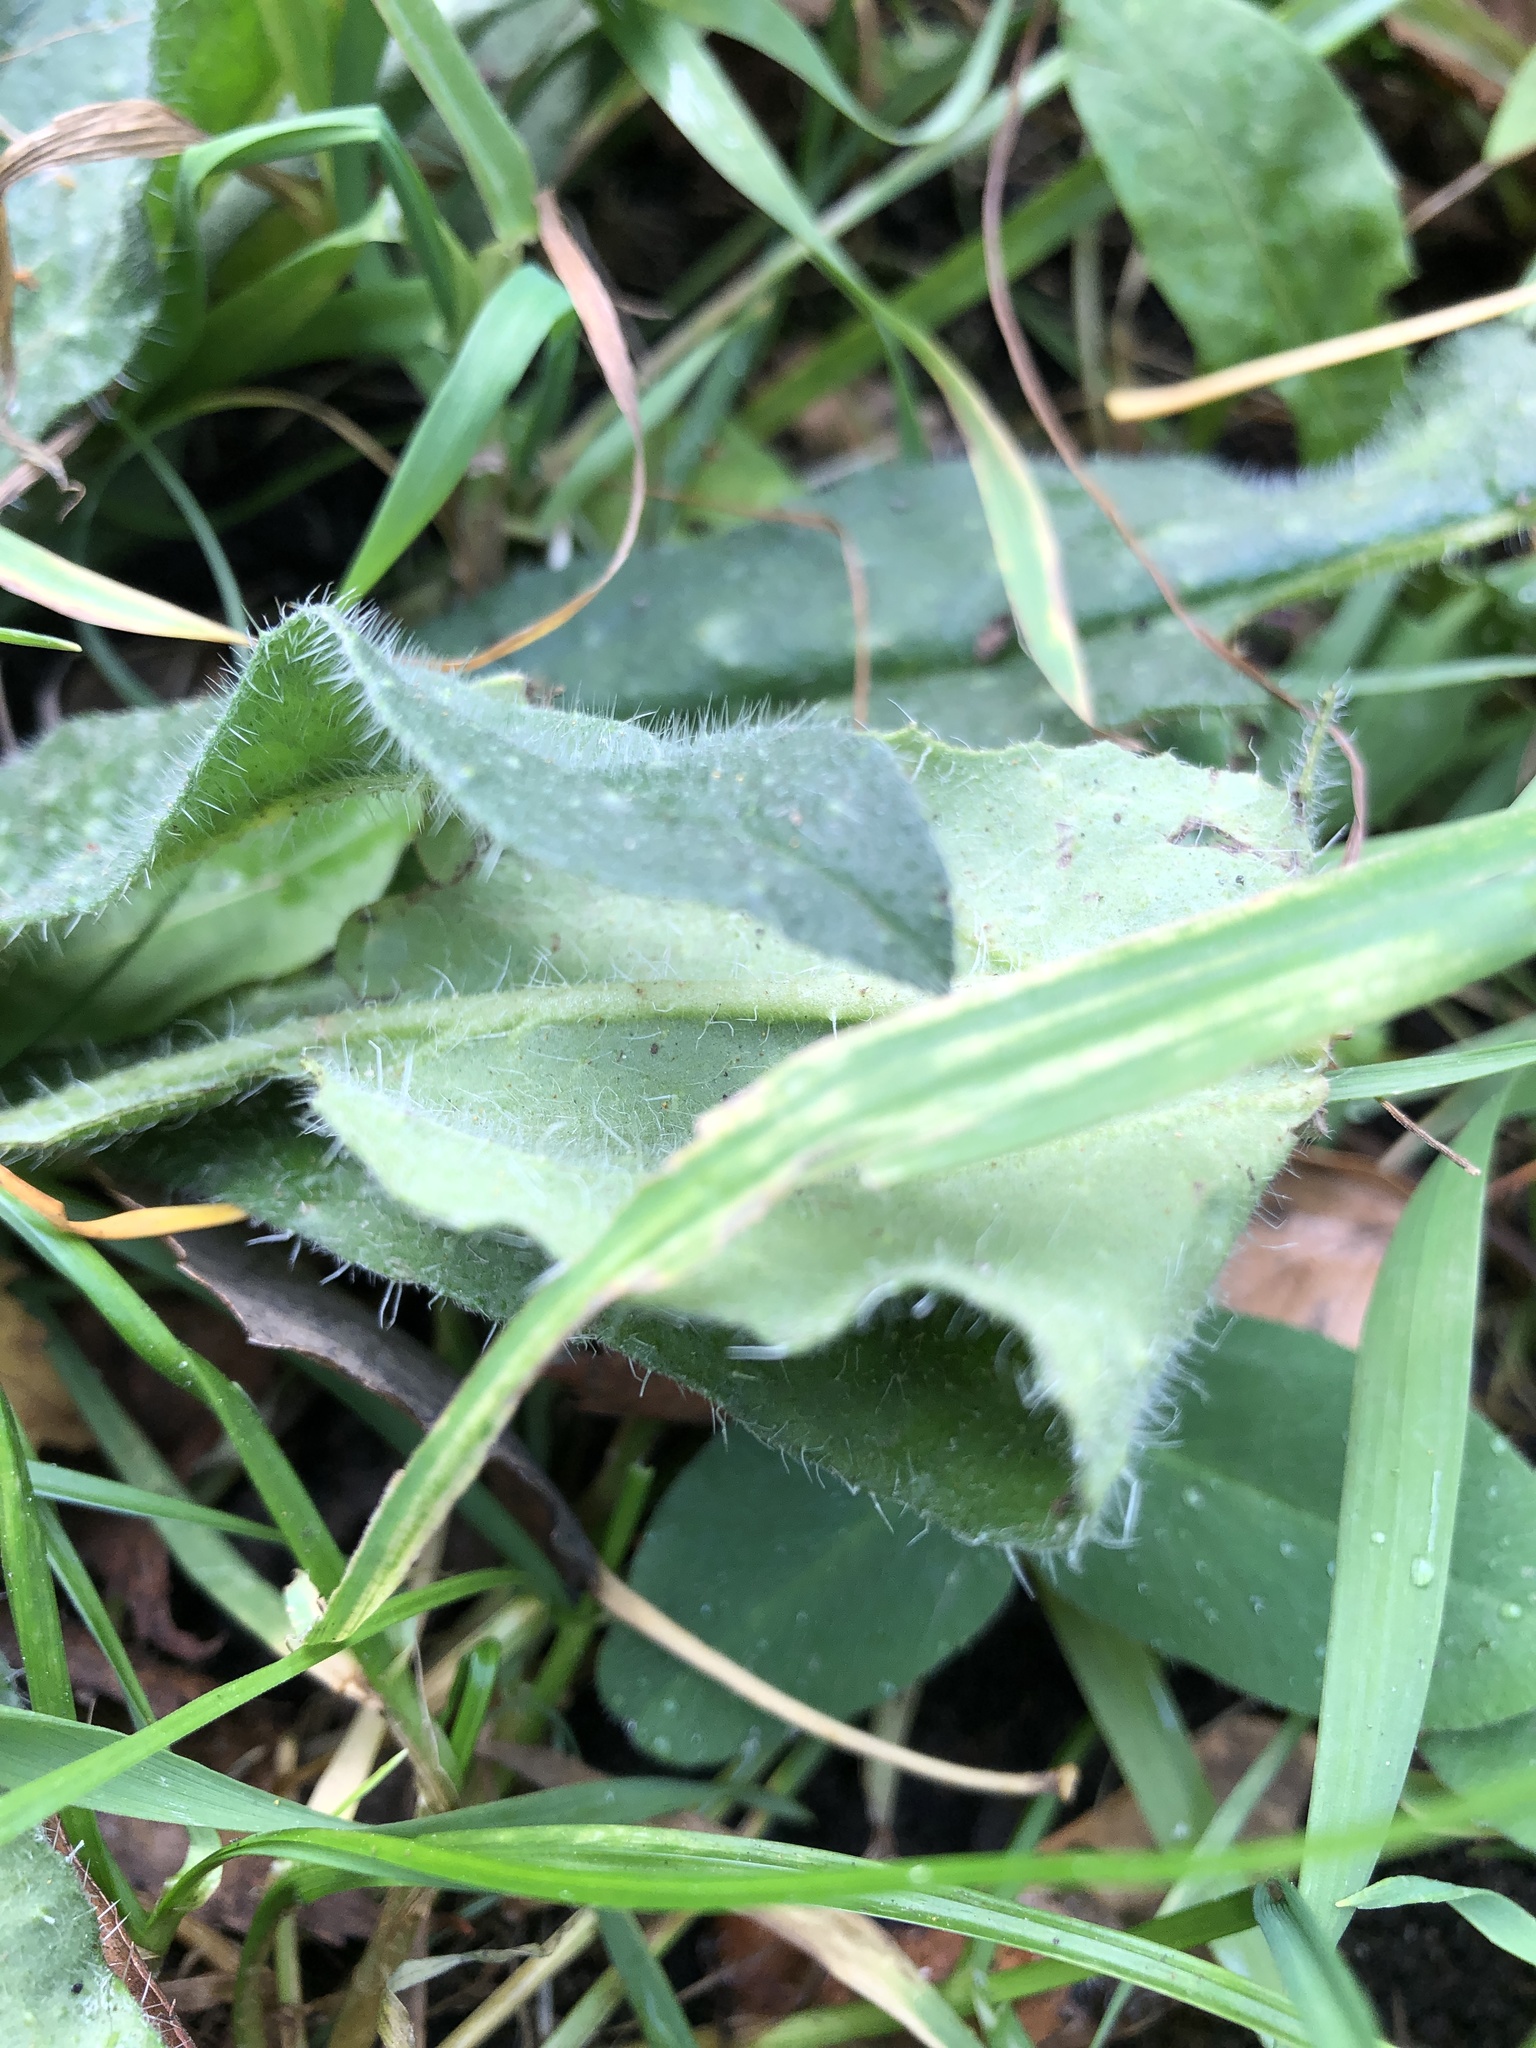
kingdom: Plantae
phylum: Tracheophyta
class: Magnoliopsida
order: Boraginales
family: Boraginaceae
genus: Echium
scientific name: Echium vulgare
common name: Common viper's bugloss
